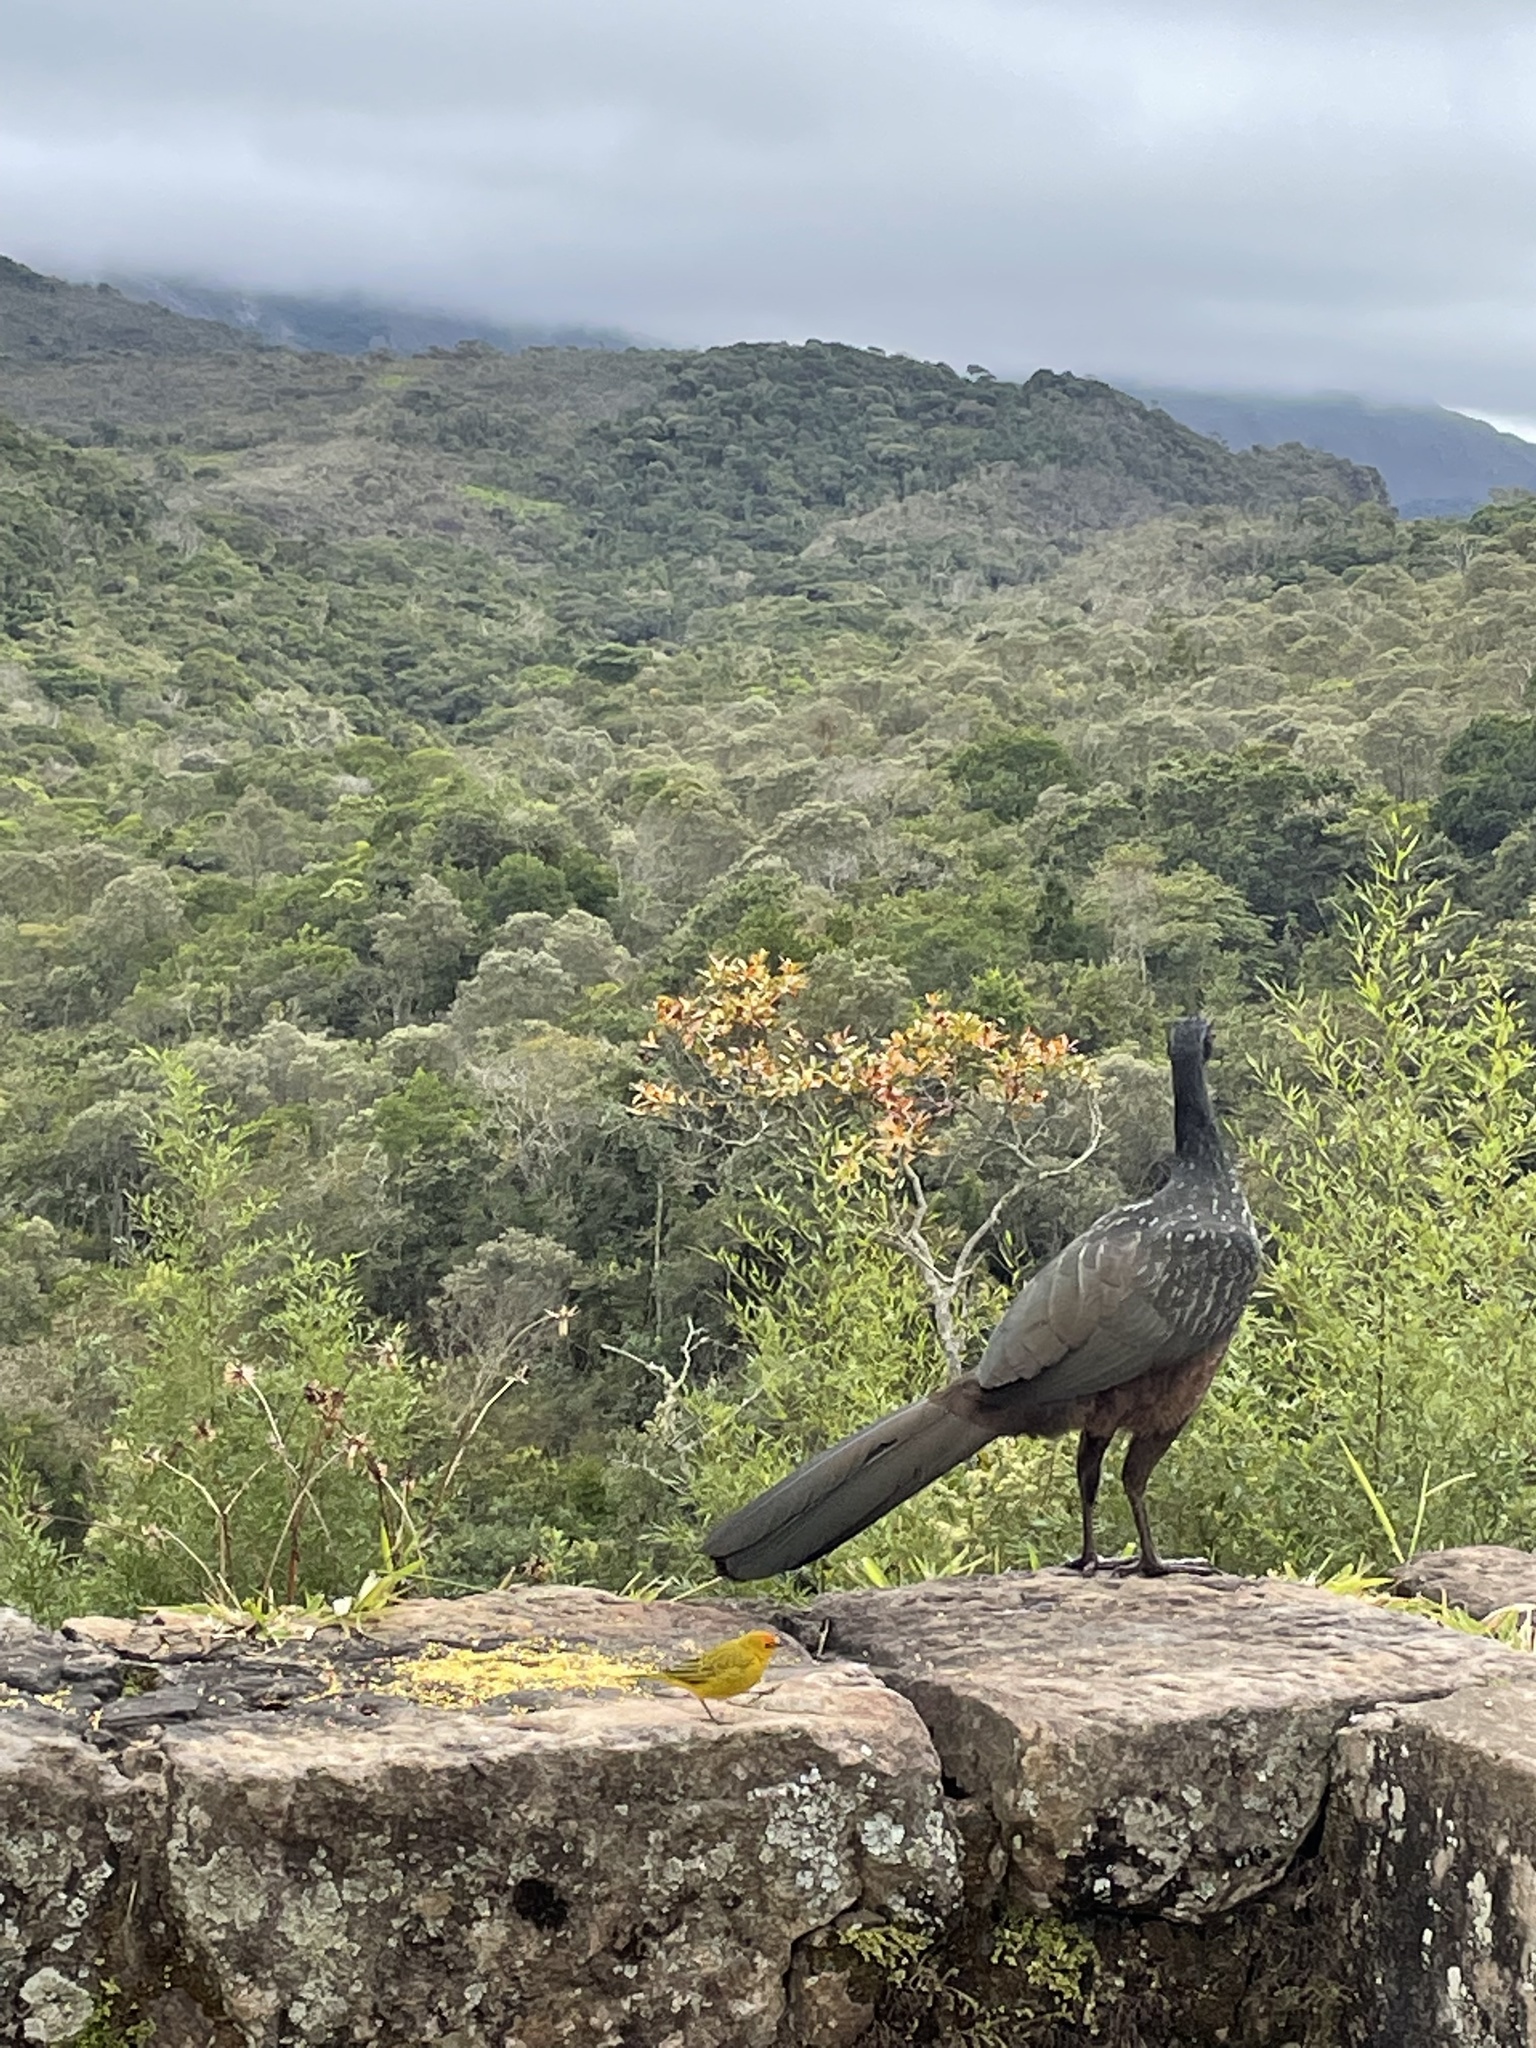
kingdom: Animalia
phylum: Chordata
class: Aves
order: Galliformes
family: Cracidae
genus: Penelope
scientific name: Penelope obscura
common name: Dusky-legged guan
